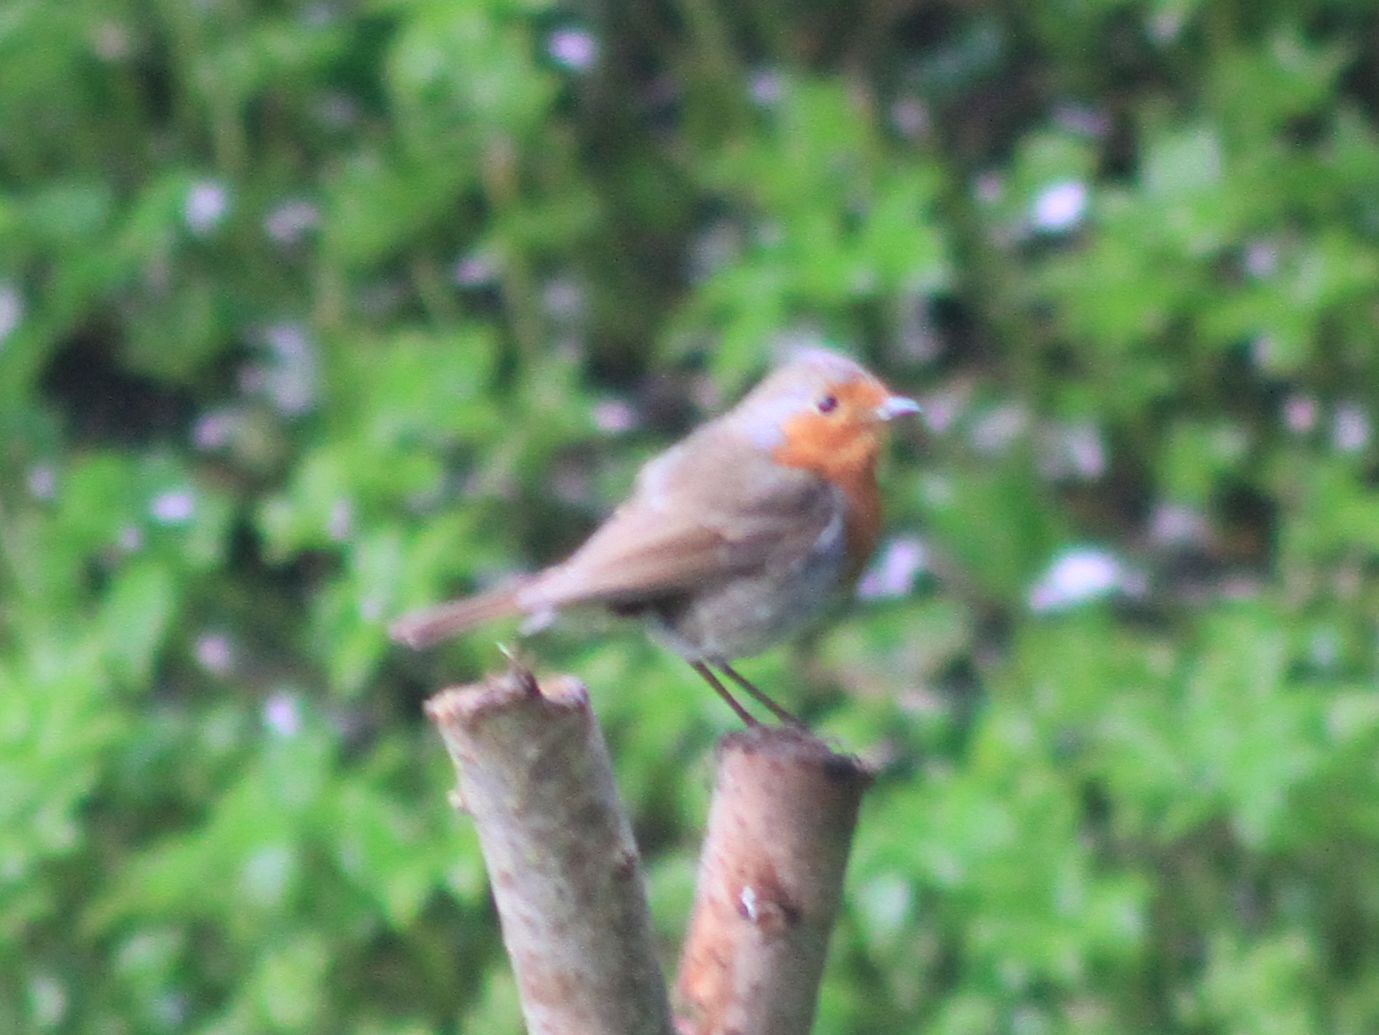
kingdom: Animalia
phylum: Chordata
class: Aves
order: Passeriformes
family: Muscicapidae
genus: Erithacus
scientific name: Erithacus rubecula
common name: European robin
